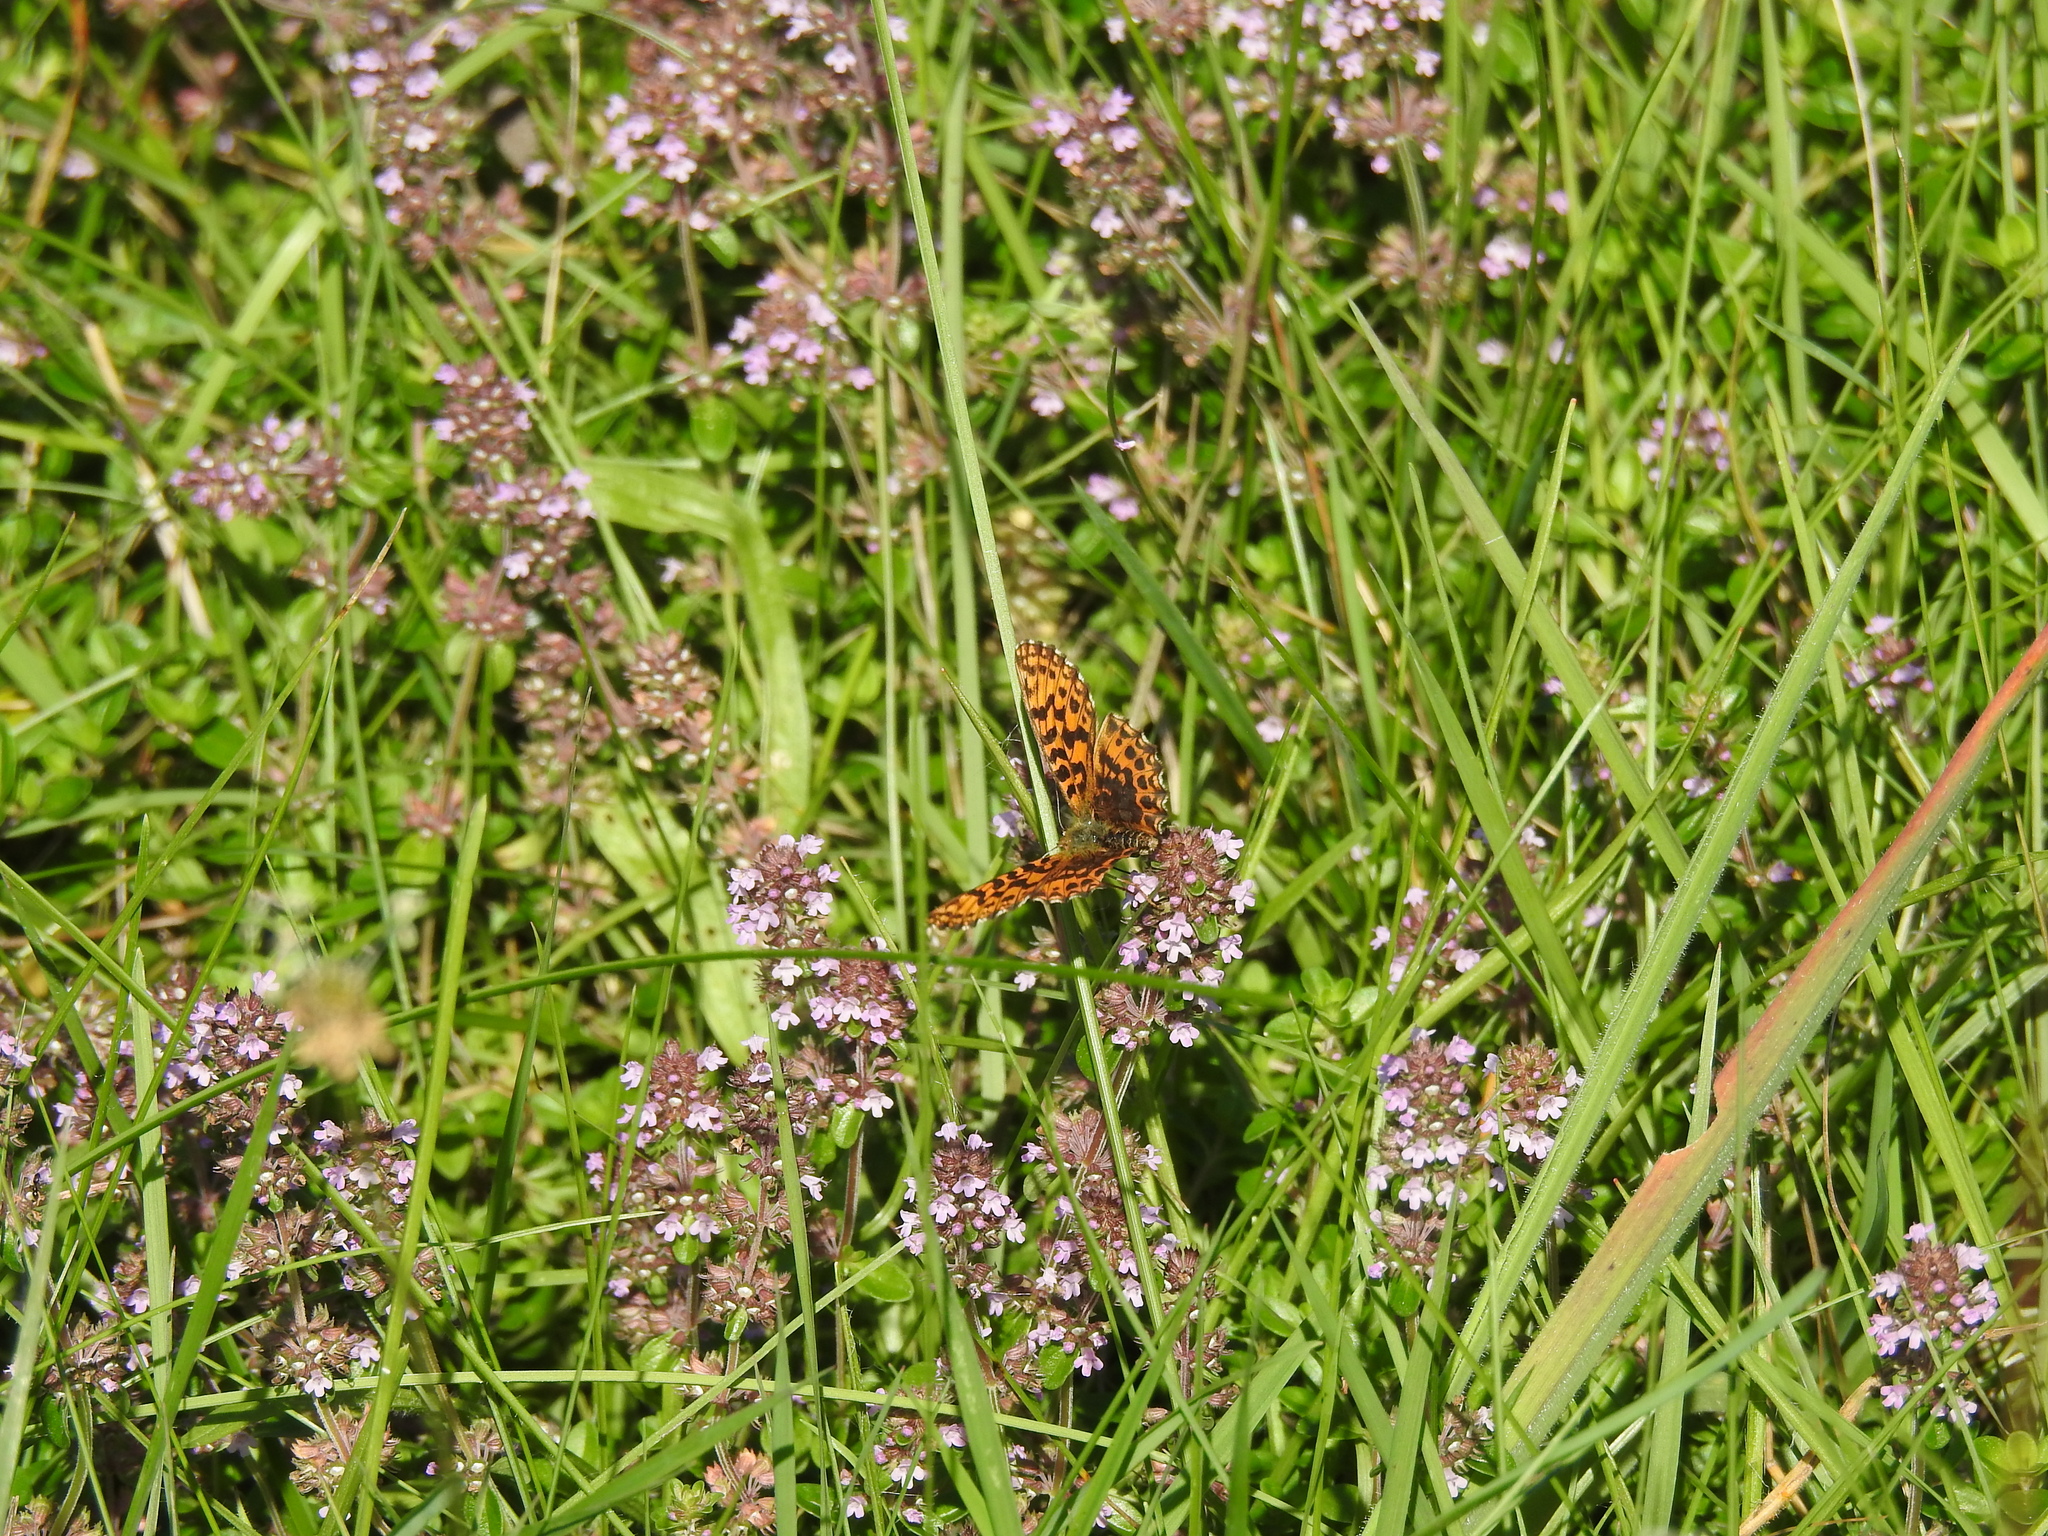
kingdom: Animalia
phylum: Arthropoda
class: Insecta
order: Lepidoptera
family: Nymphalidae
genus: Boloria
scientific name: Boloria dia
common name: Weaver's fritillary
